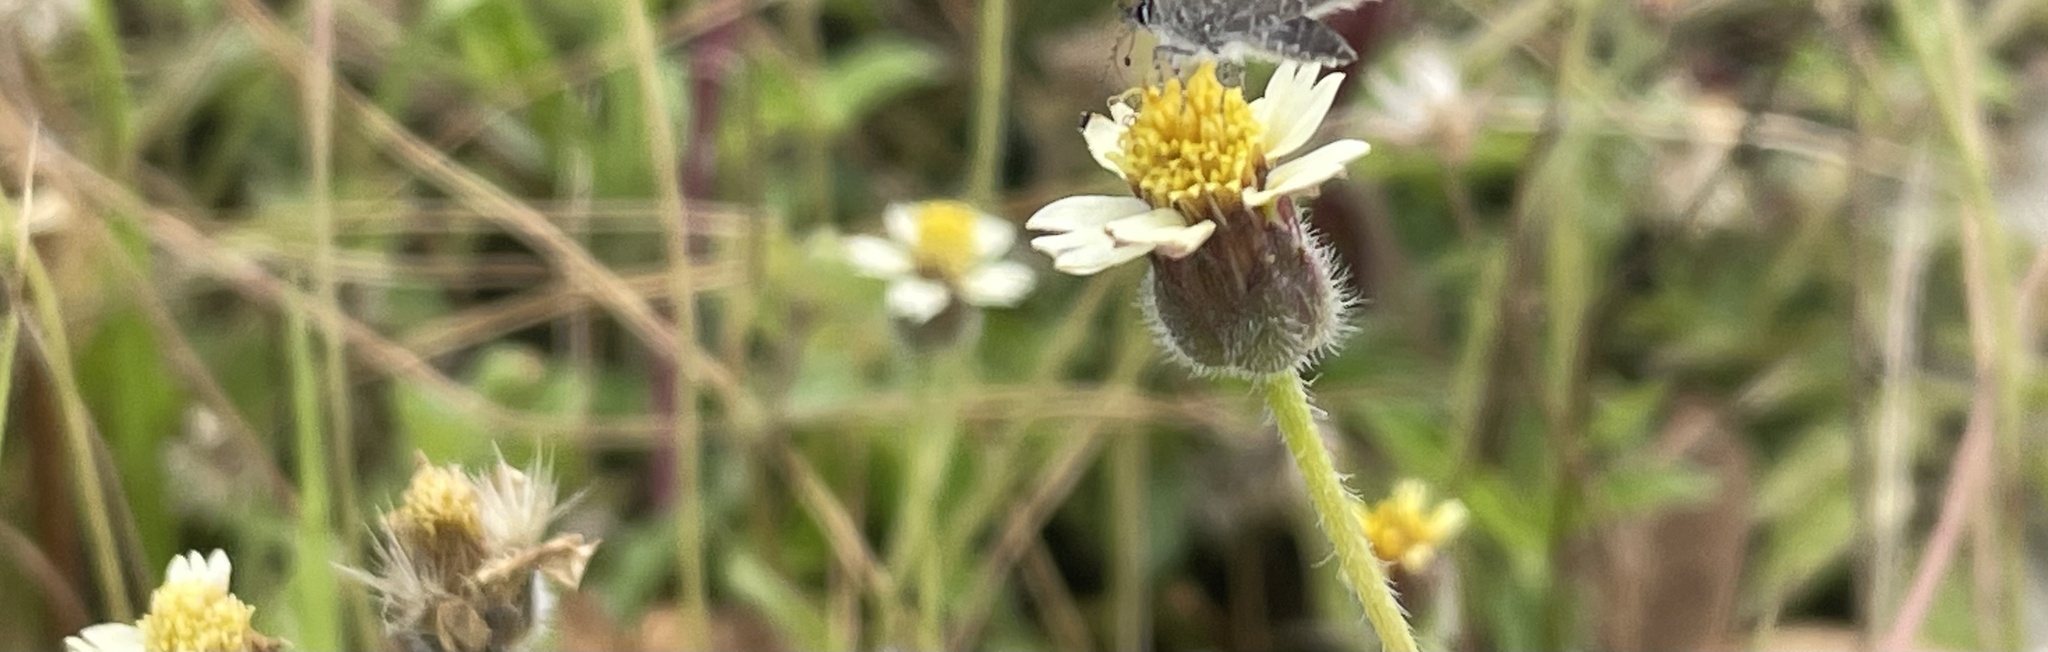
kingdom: Plantae
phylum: Tracheophyta
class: Magnoliopsida
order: Asterales
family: Asteraceae
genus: Tridax
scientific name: Tridax procumbens
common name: Coatbuttons
